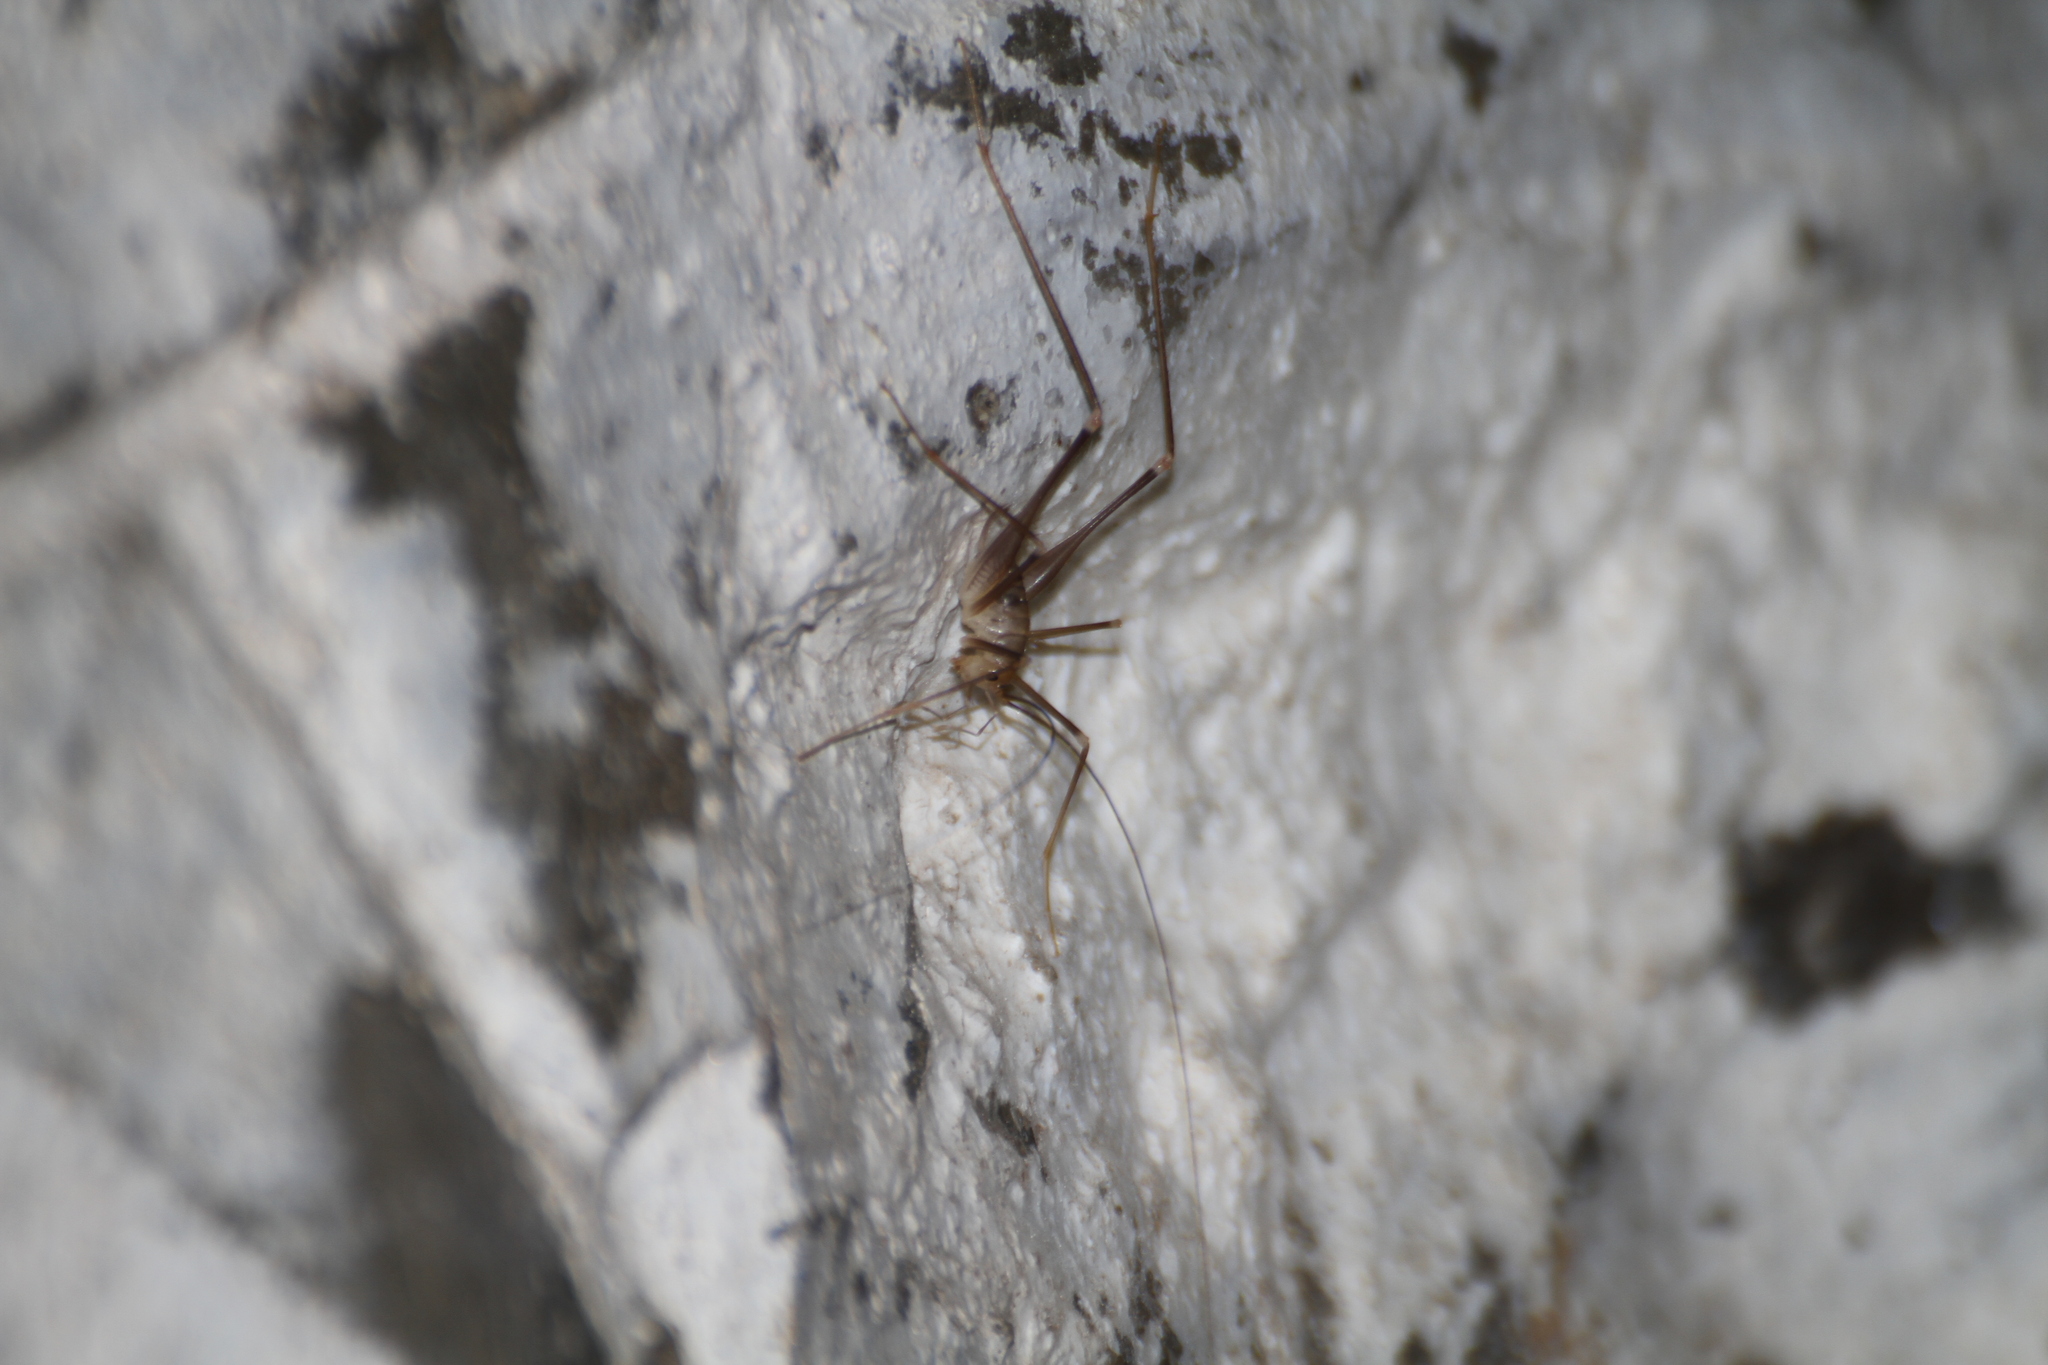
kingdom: Animalia
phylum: Arthropoda
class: Insecta
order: Orthoptera
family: Rhaphidophoridae
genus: Dolichopoda
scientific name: Dolichopoda azami
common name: Azam's cave-cricket
